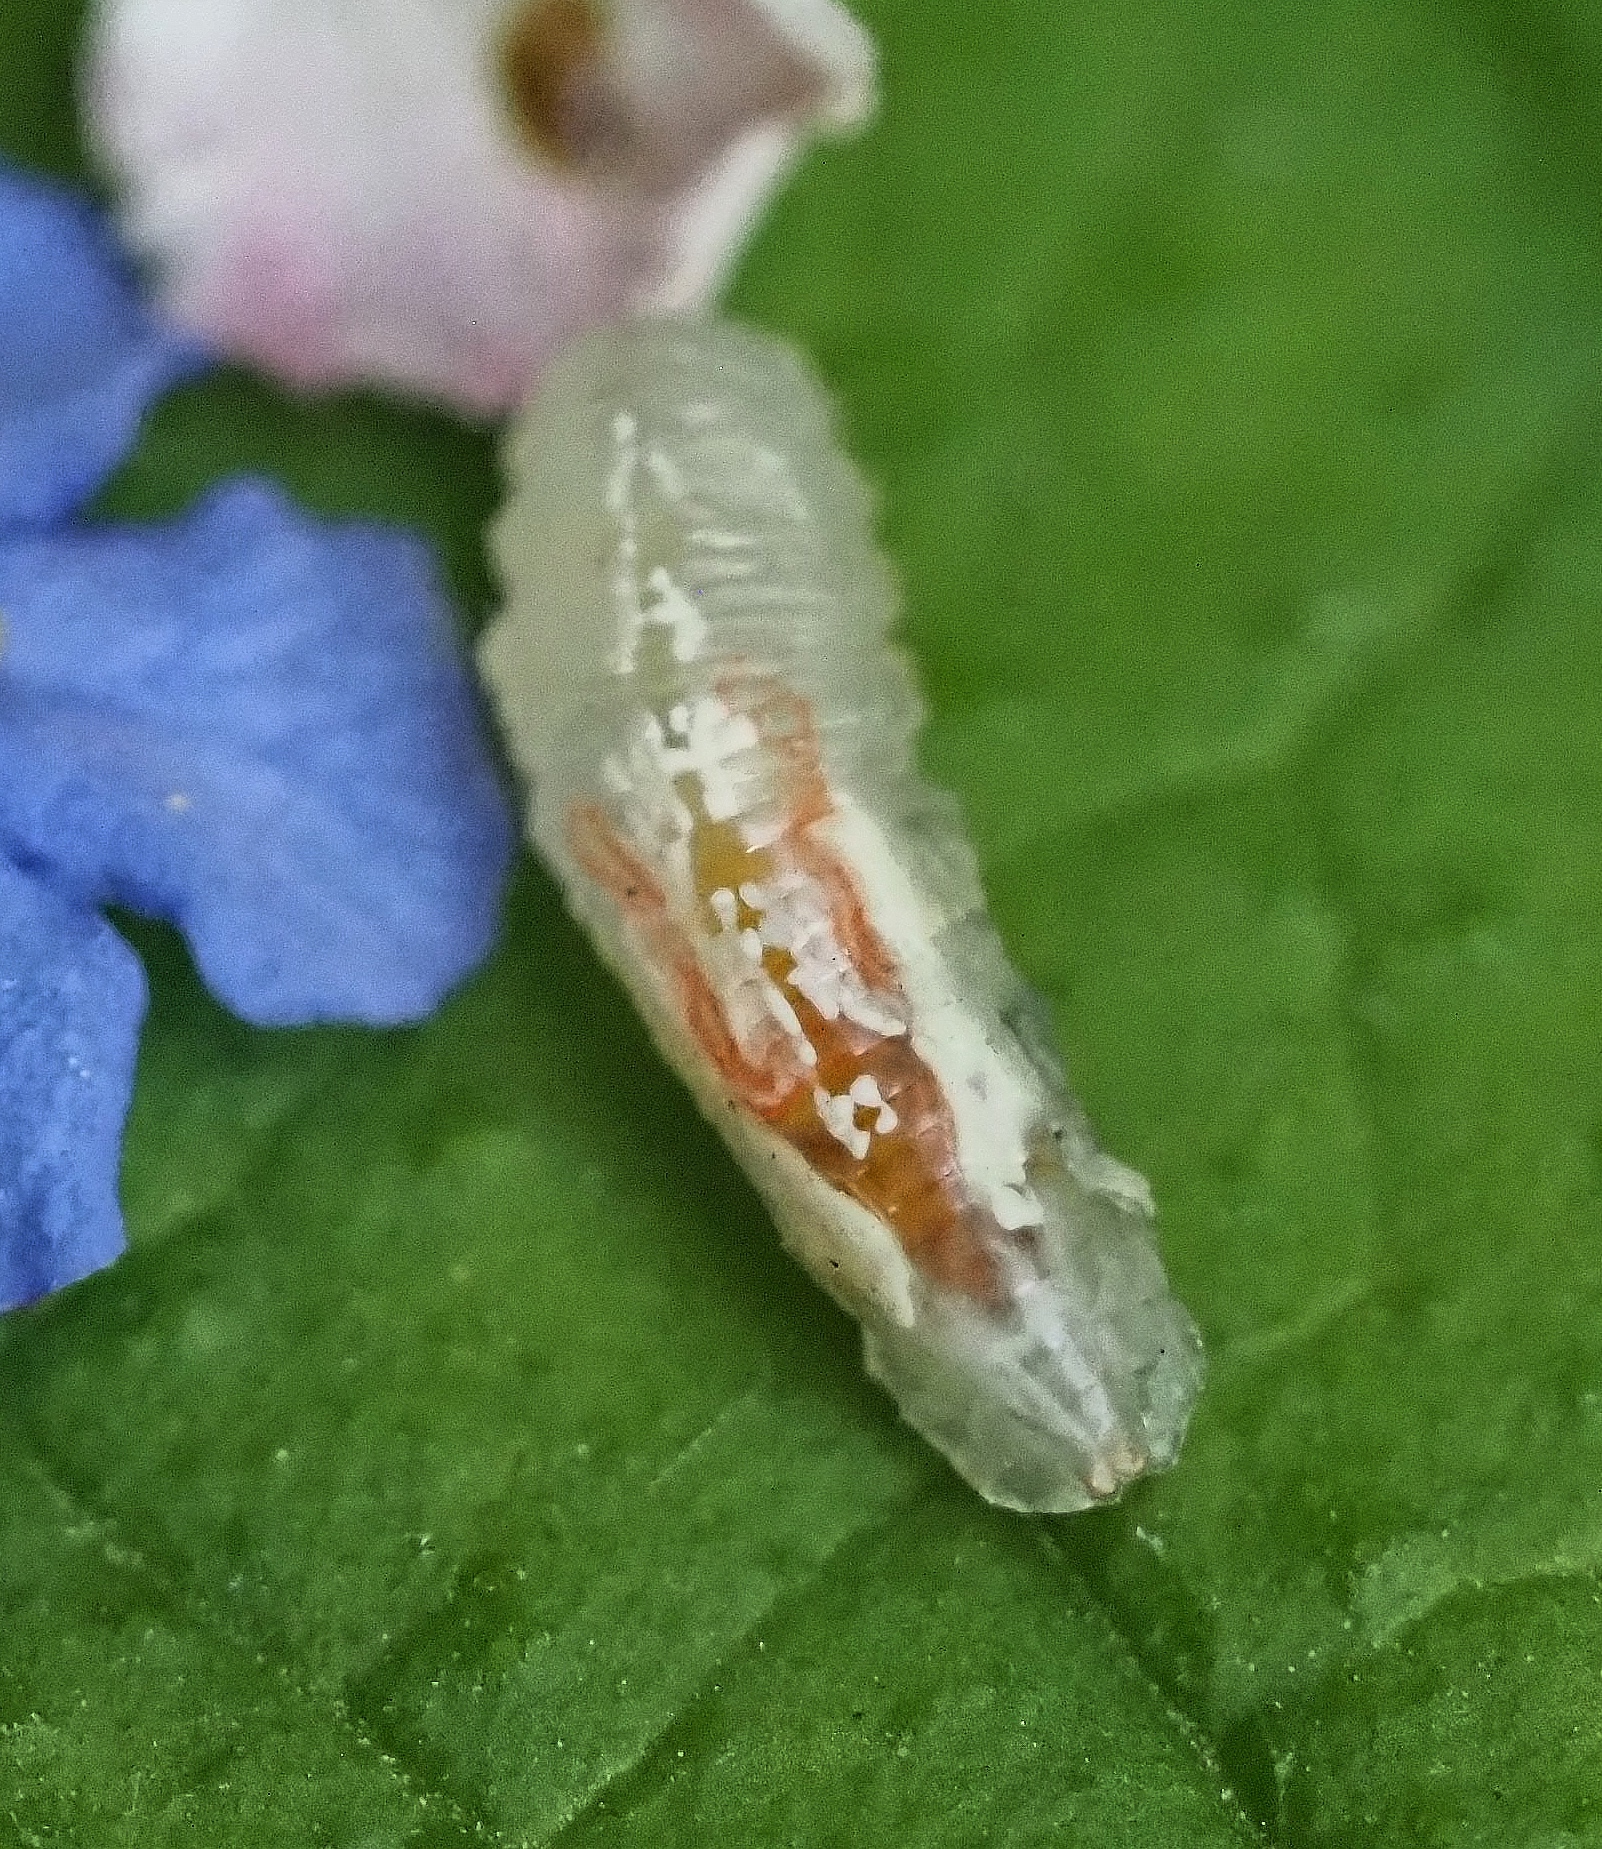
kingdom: Animalia
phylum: Arthropoda
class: Insecta
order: Diptera
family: Syrphidae
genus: Episyrphus
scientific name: Episyrphus balteatus
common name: Marmalade hoverfly
